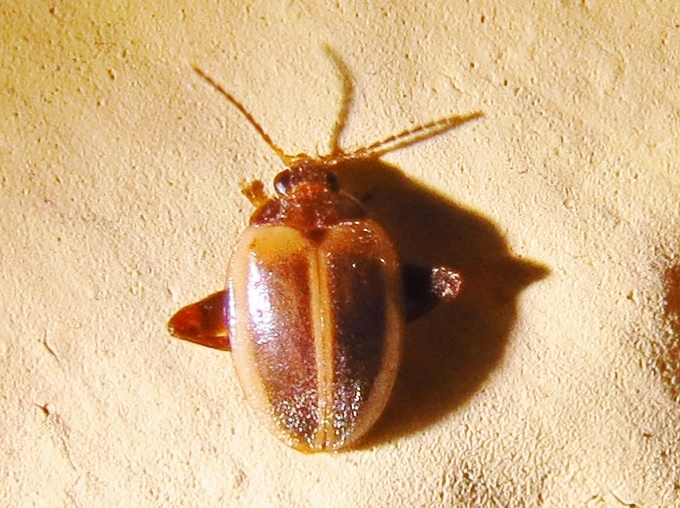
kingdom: Animalia
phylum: Arthropoda
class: Insecta
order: Coleoptera
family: Scirtidae
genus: Ora
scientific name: Ora discoidea
